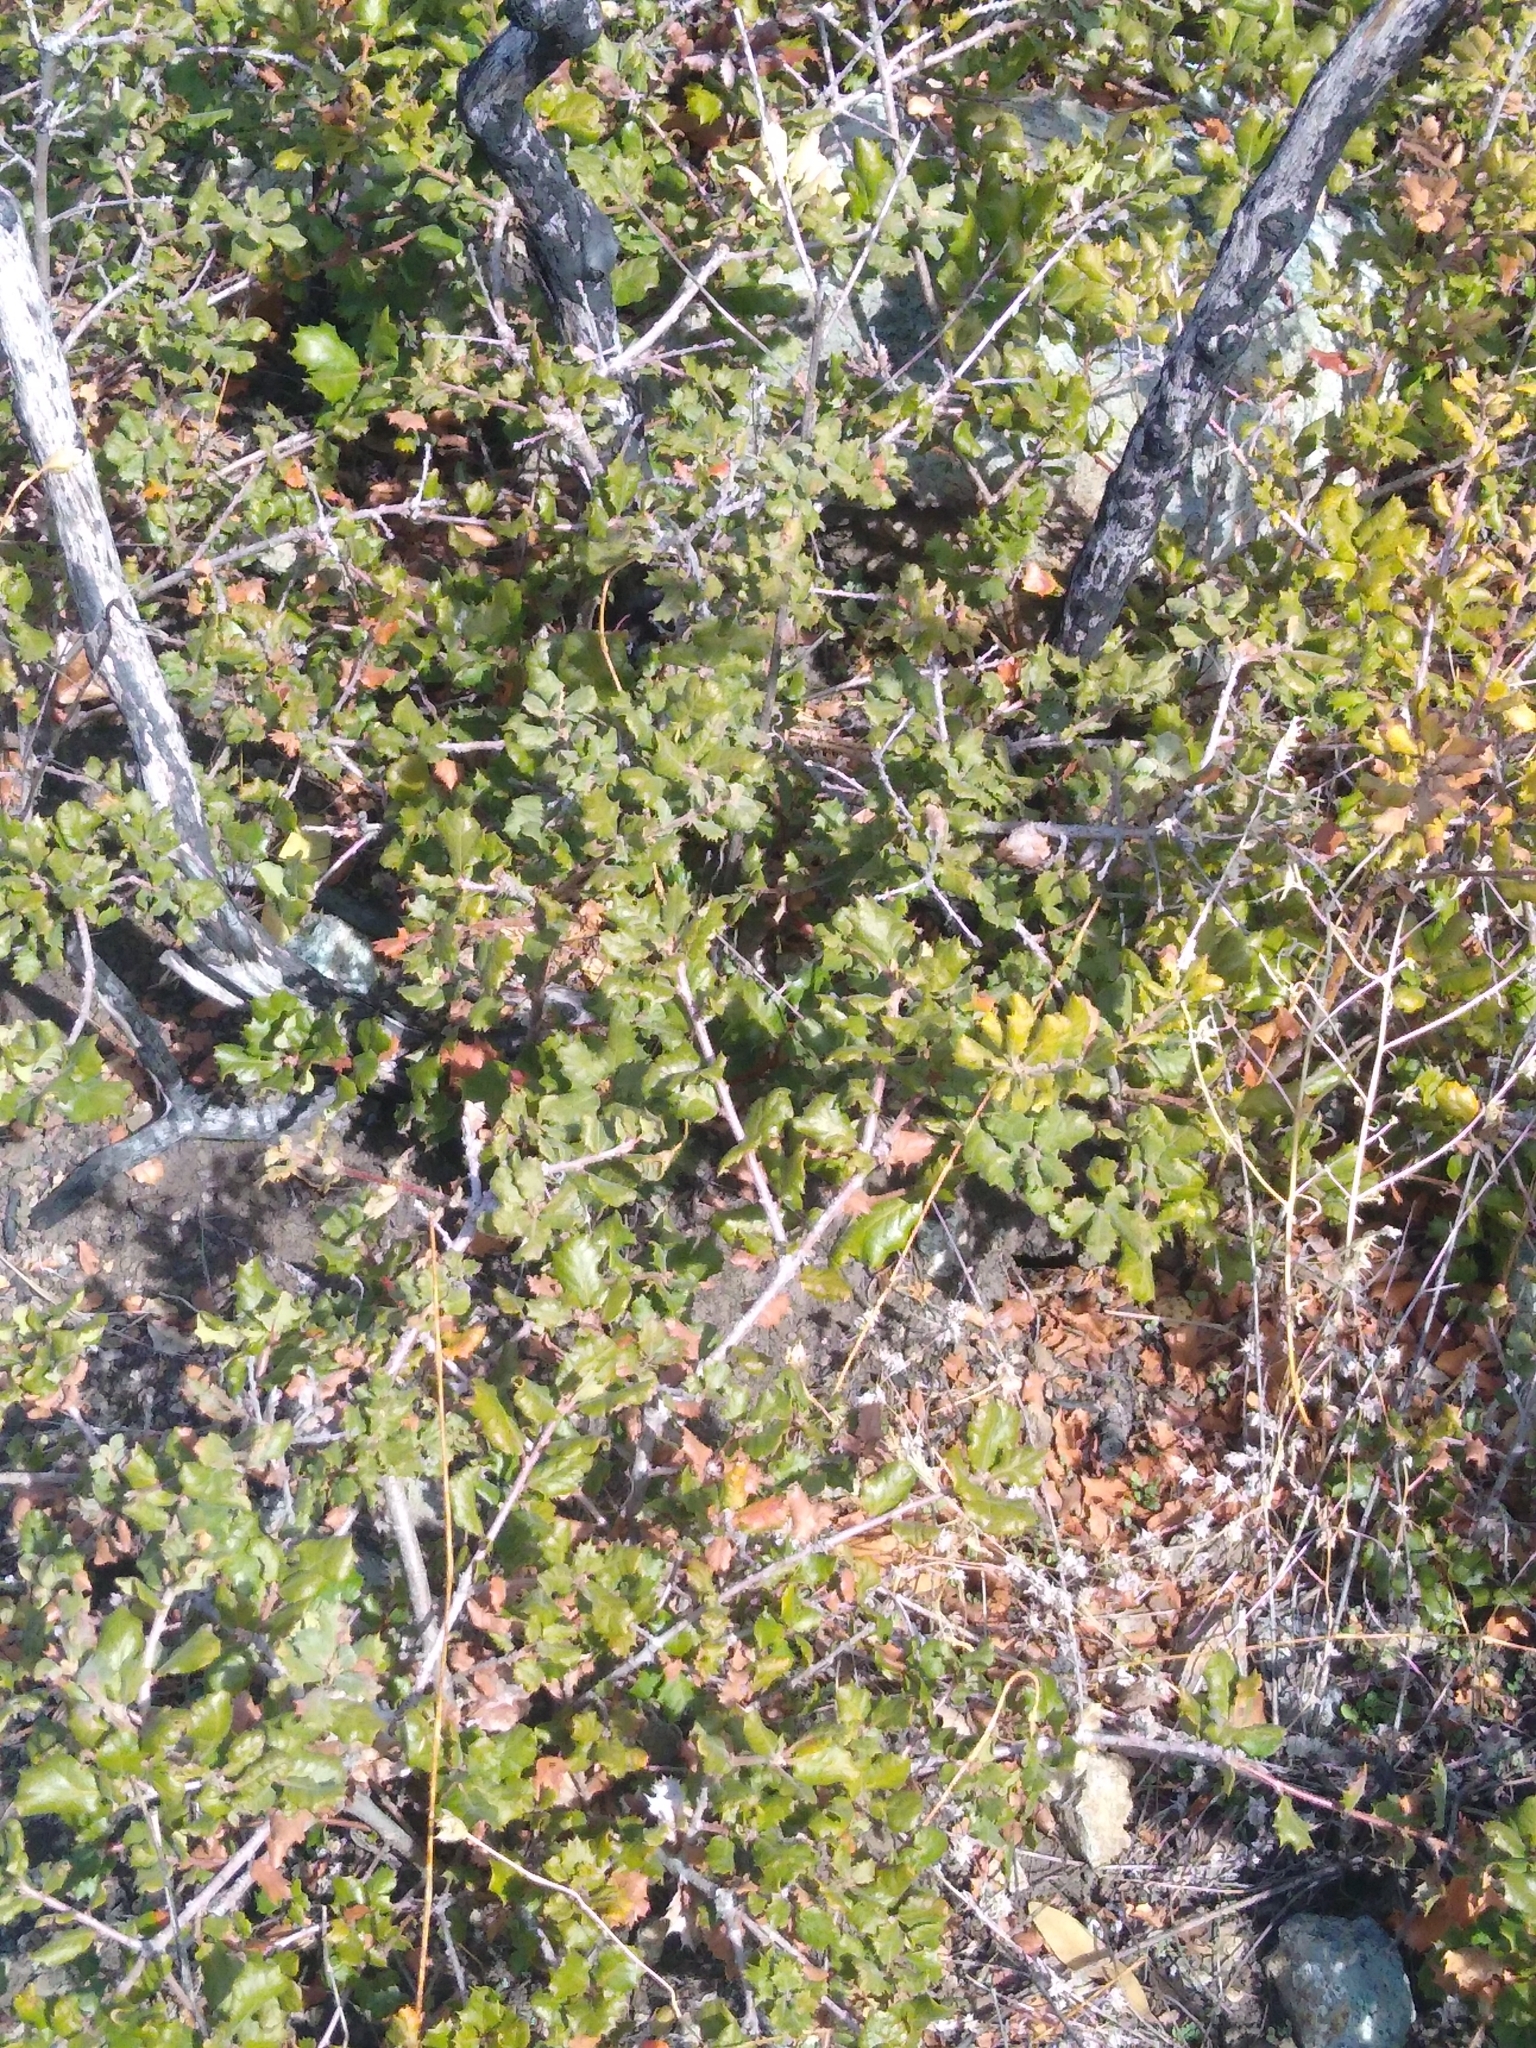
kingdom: Plantae
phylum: Tracheophyta
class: Magnoliopsida
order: Fagales
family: Fagaceae
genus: Quercus
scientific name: Quercus durata
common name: Leather oak
